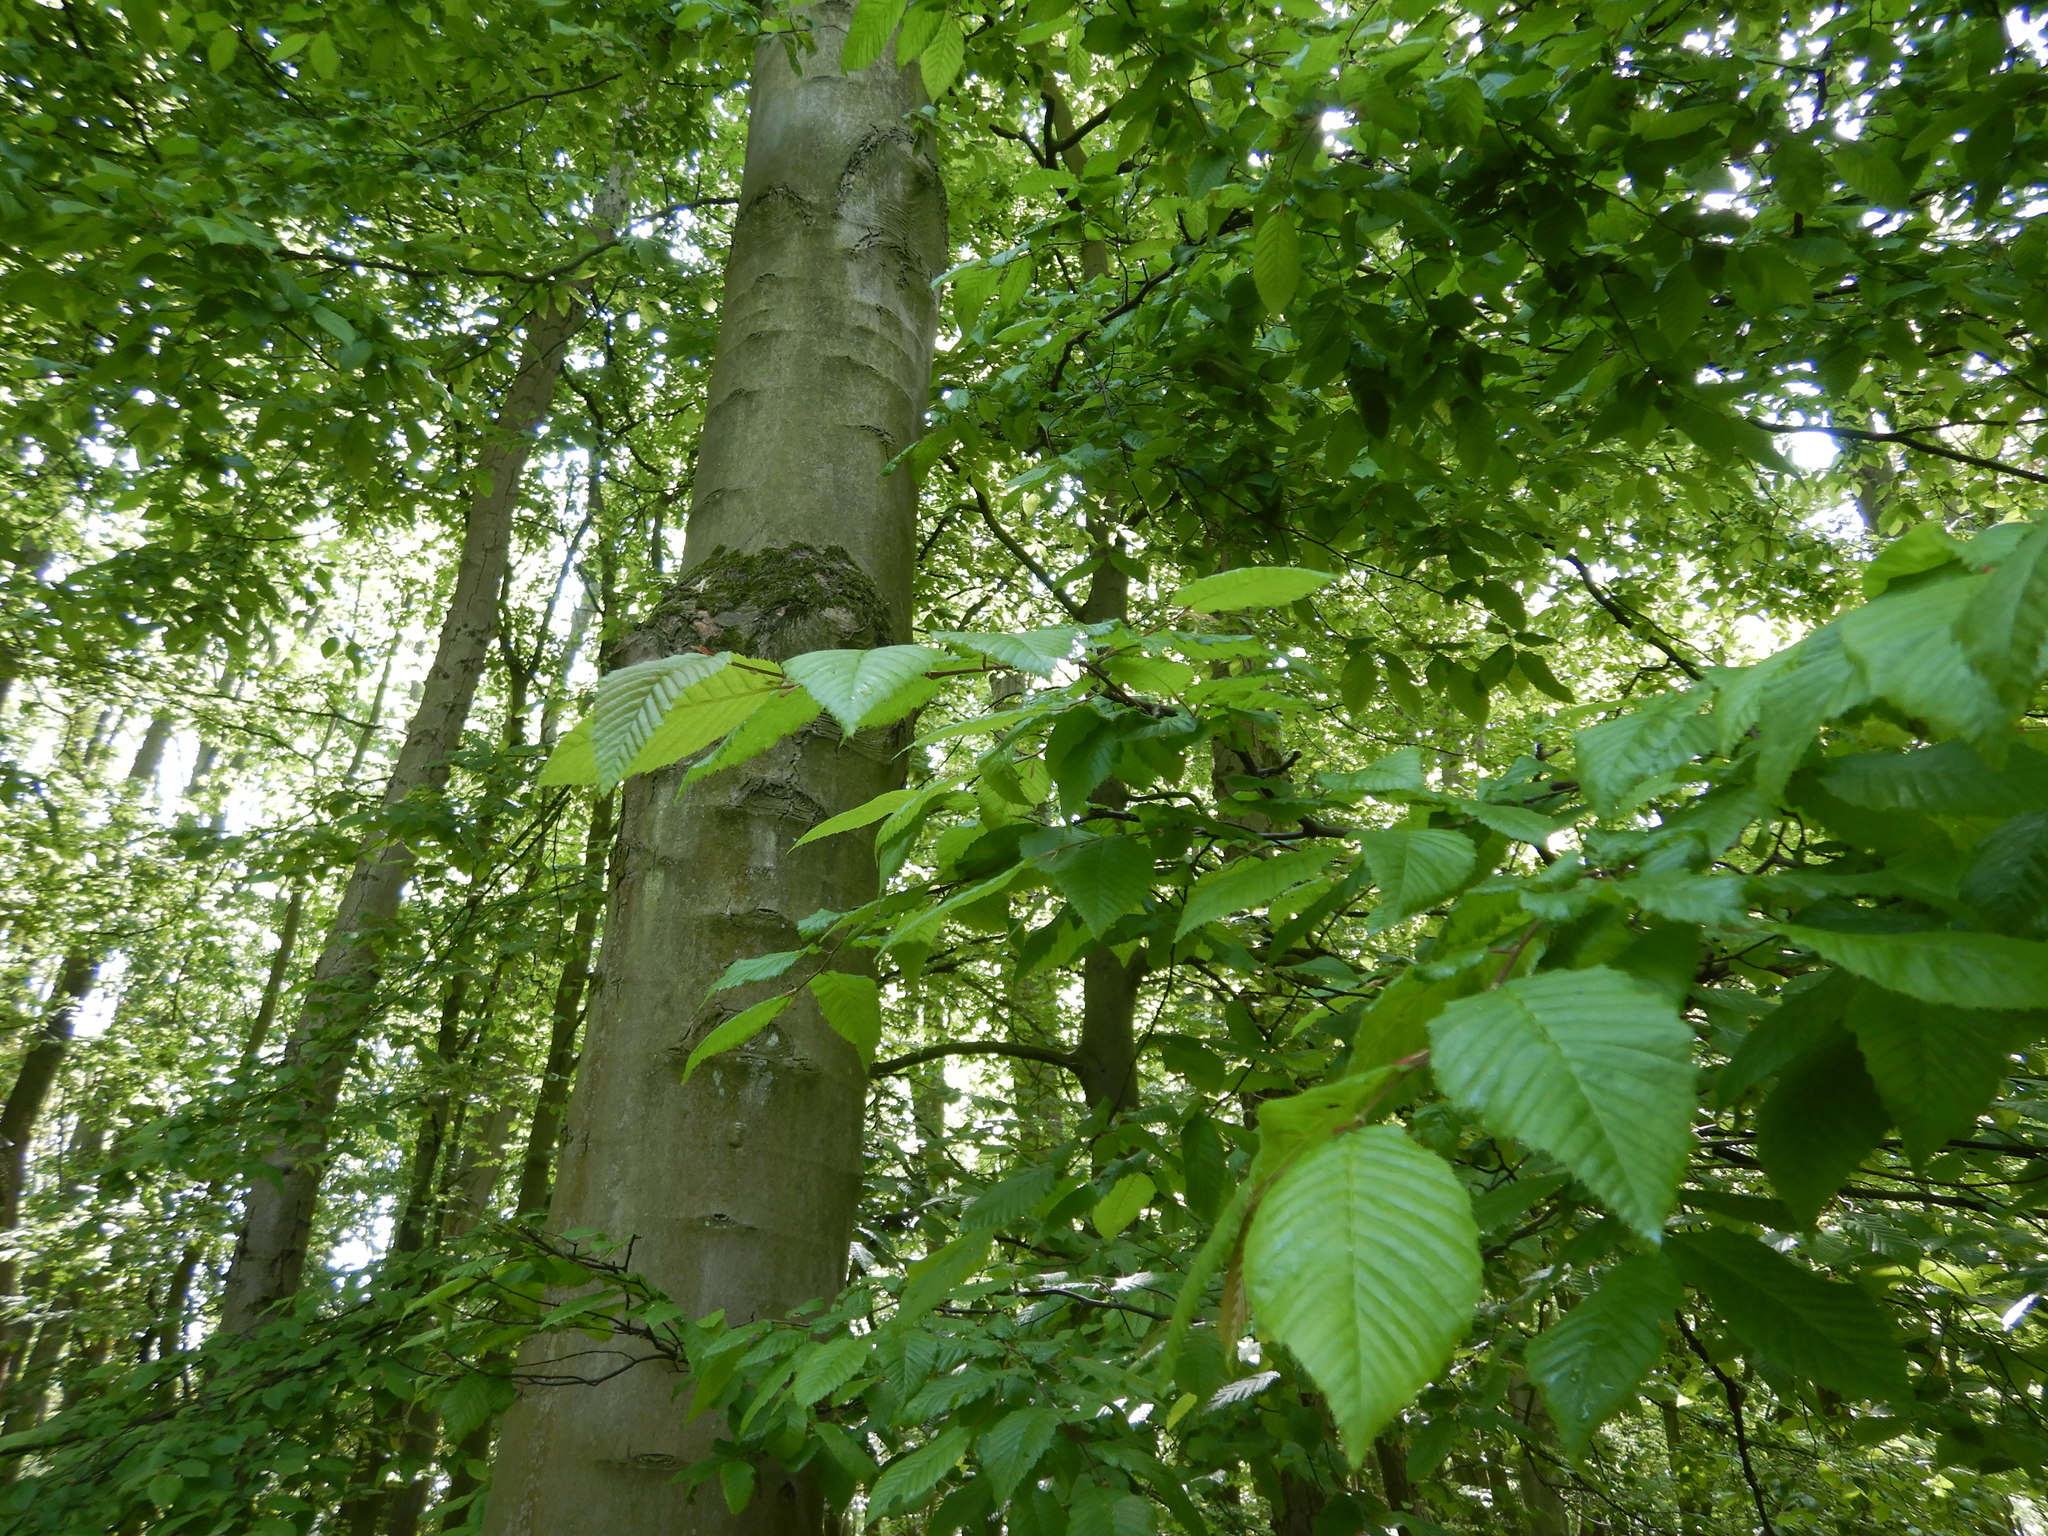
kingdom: Plantae
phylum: Tracheophyta
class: Magnoliopsida
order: Fagales
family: Betulaceae
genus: Carpinus
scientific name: Carpinus betulus
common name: Hornbeam
